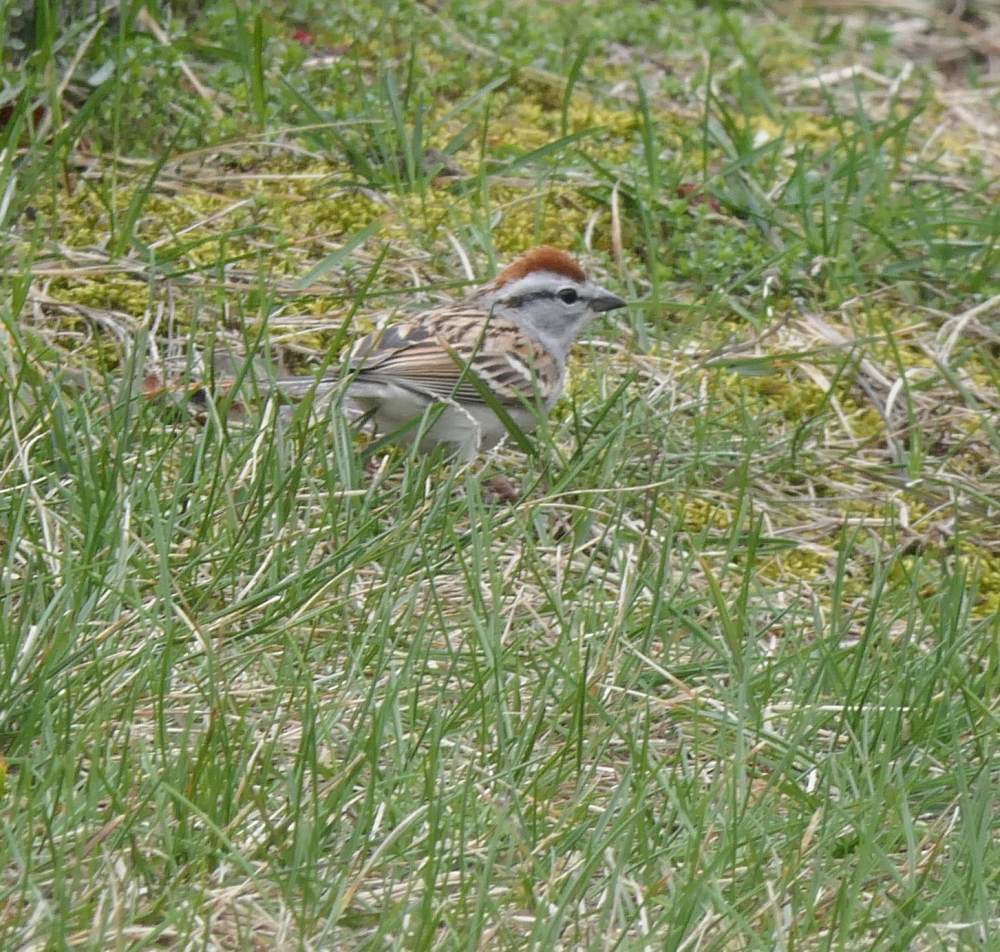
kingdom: Animalia
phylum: Chordata
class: Aves
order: Passeriformes
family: Passerellidae
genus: Spizella
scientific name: Spizella passerina
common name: Chipping sparrow
